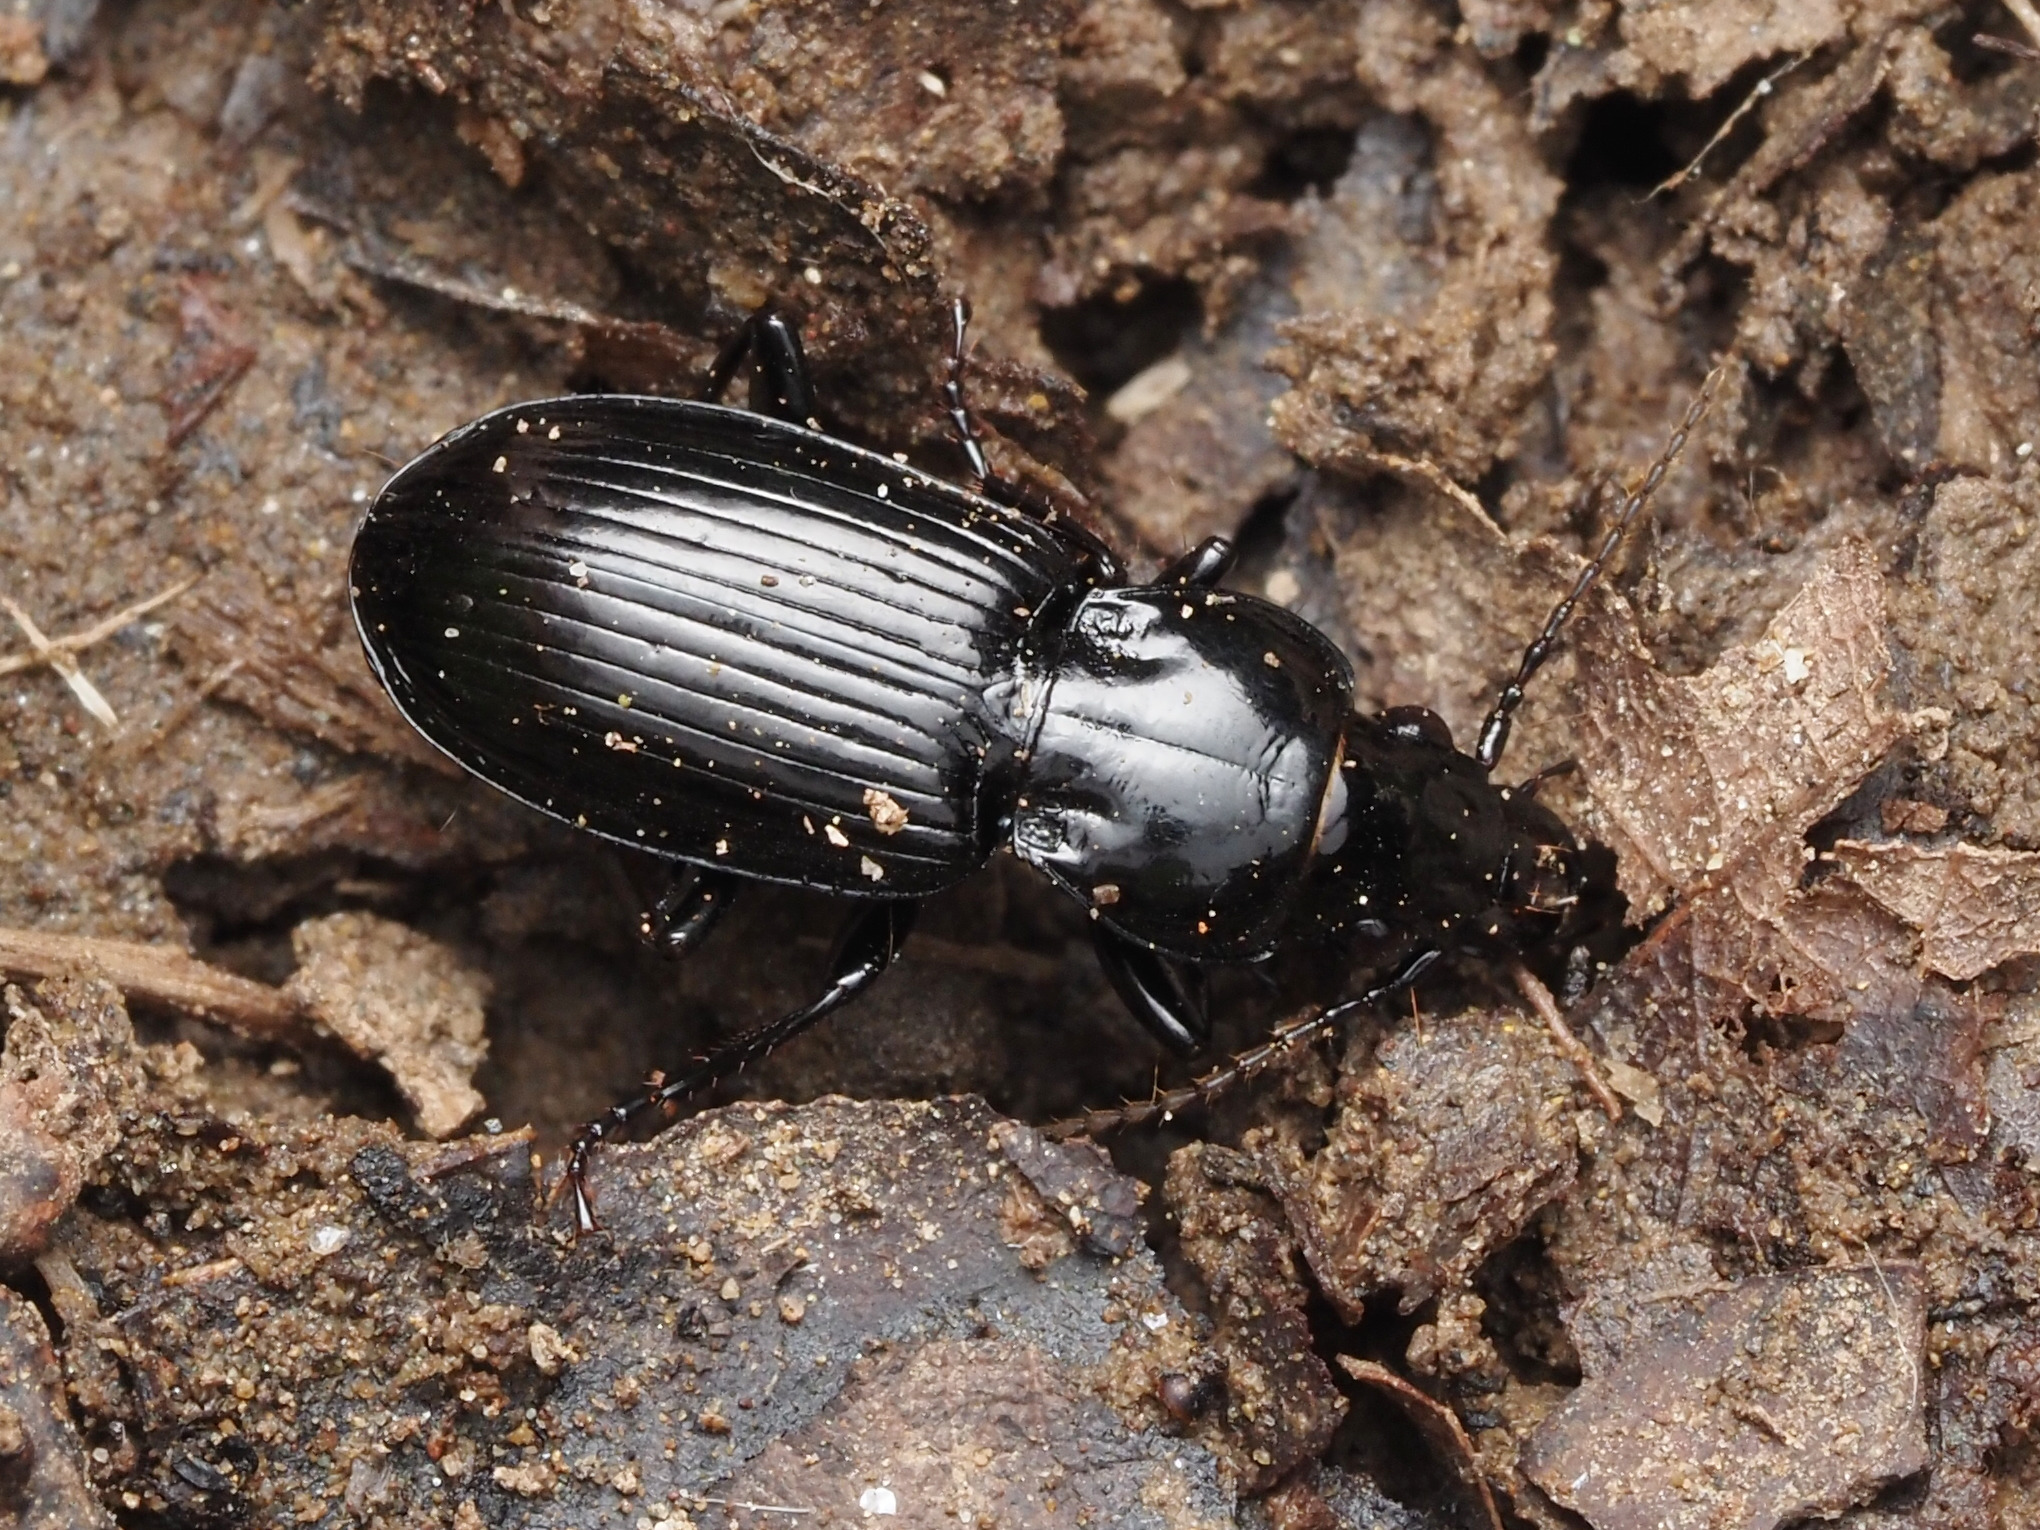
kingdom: Animalia
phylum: Arthropoda
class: Insecta
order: Coleoptera
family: Carabidae
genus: Pterostichus
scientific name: Pterostichus corvinus
